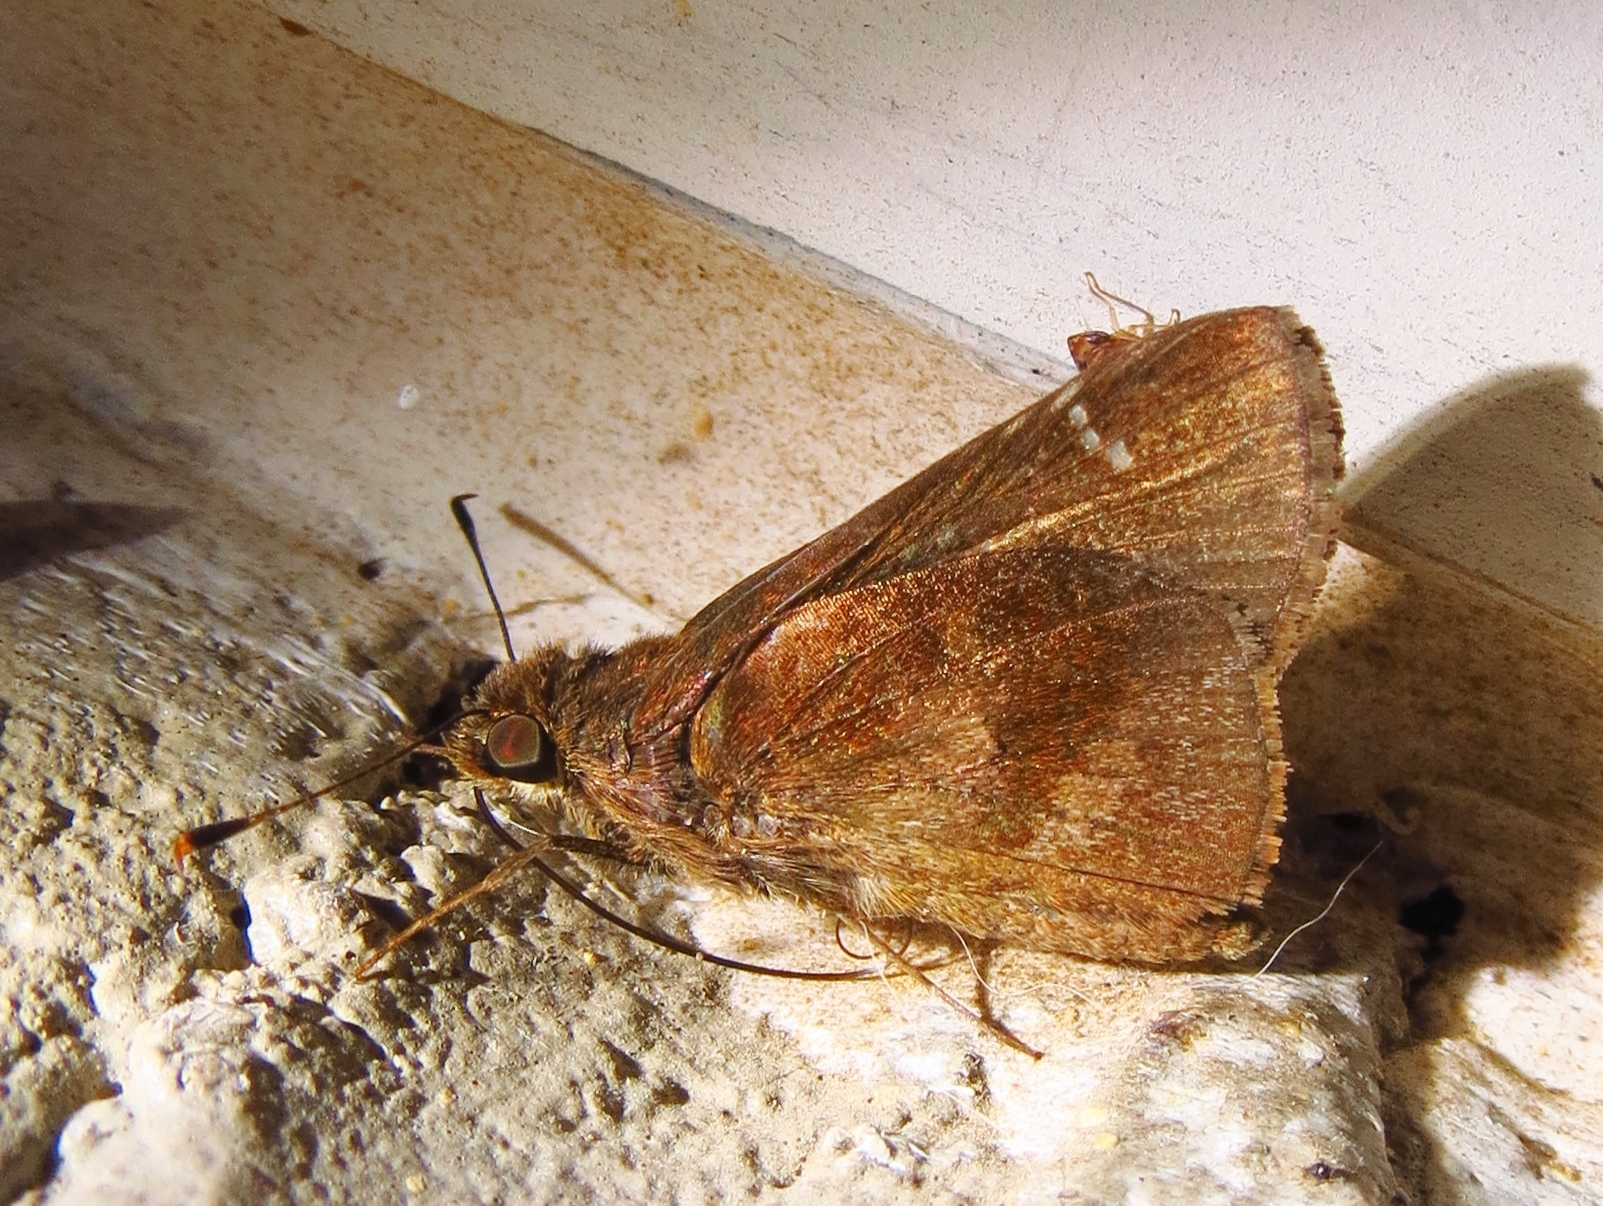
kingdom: Animalia
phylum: Arthropoda
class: Insecta
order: Lepidoptera
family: Hesperiidae
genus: Lerema
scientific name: Lerema accius
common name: Clouded skipper
